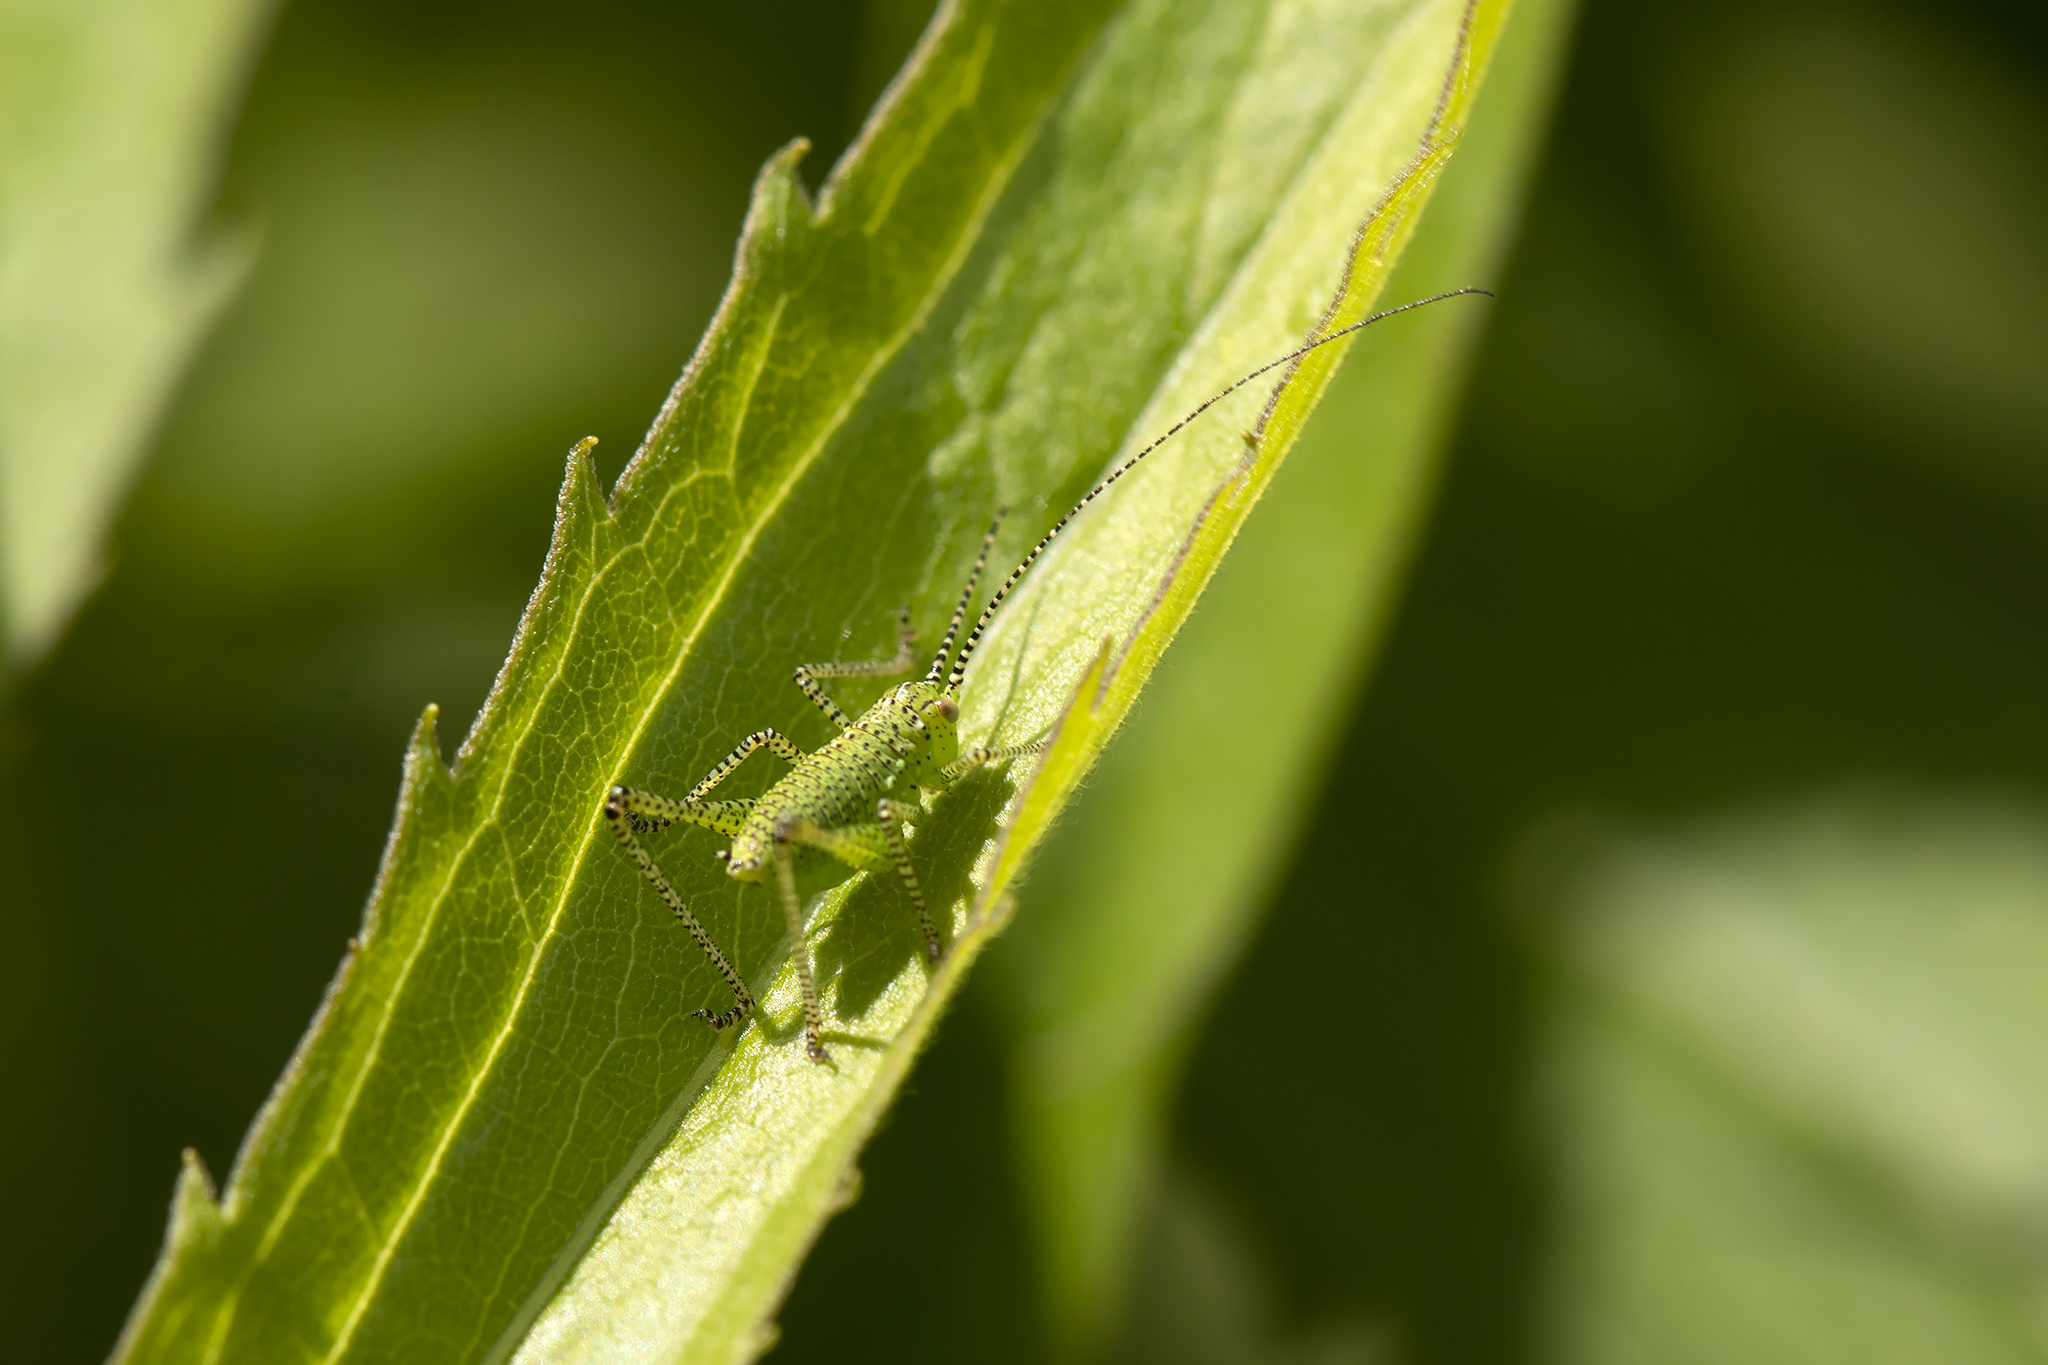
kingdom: Animalia
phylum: Arthropoda
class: Insecta
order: Orthoptera
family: Tettigoniidae
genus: Leptophyes
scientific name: Leptophyes punctatissima
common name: Speckled bush-cricket
